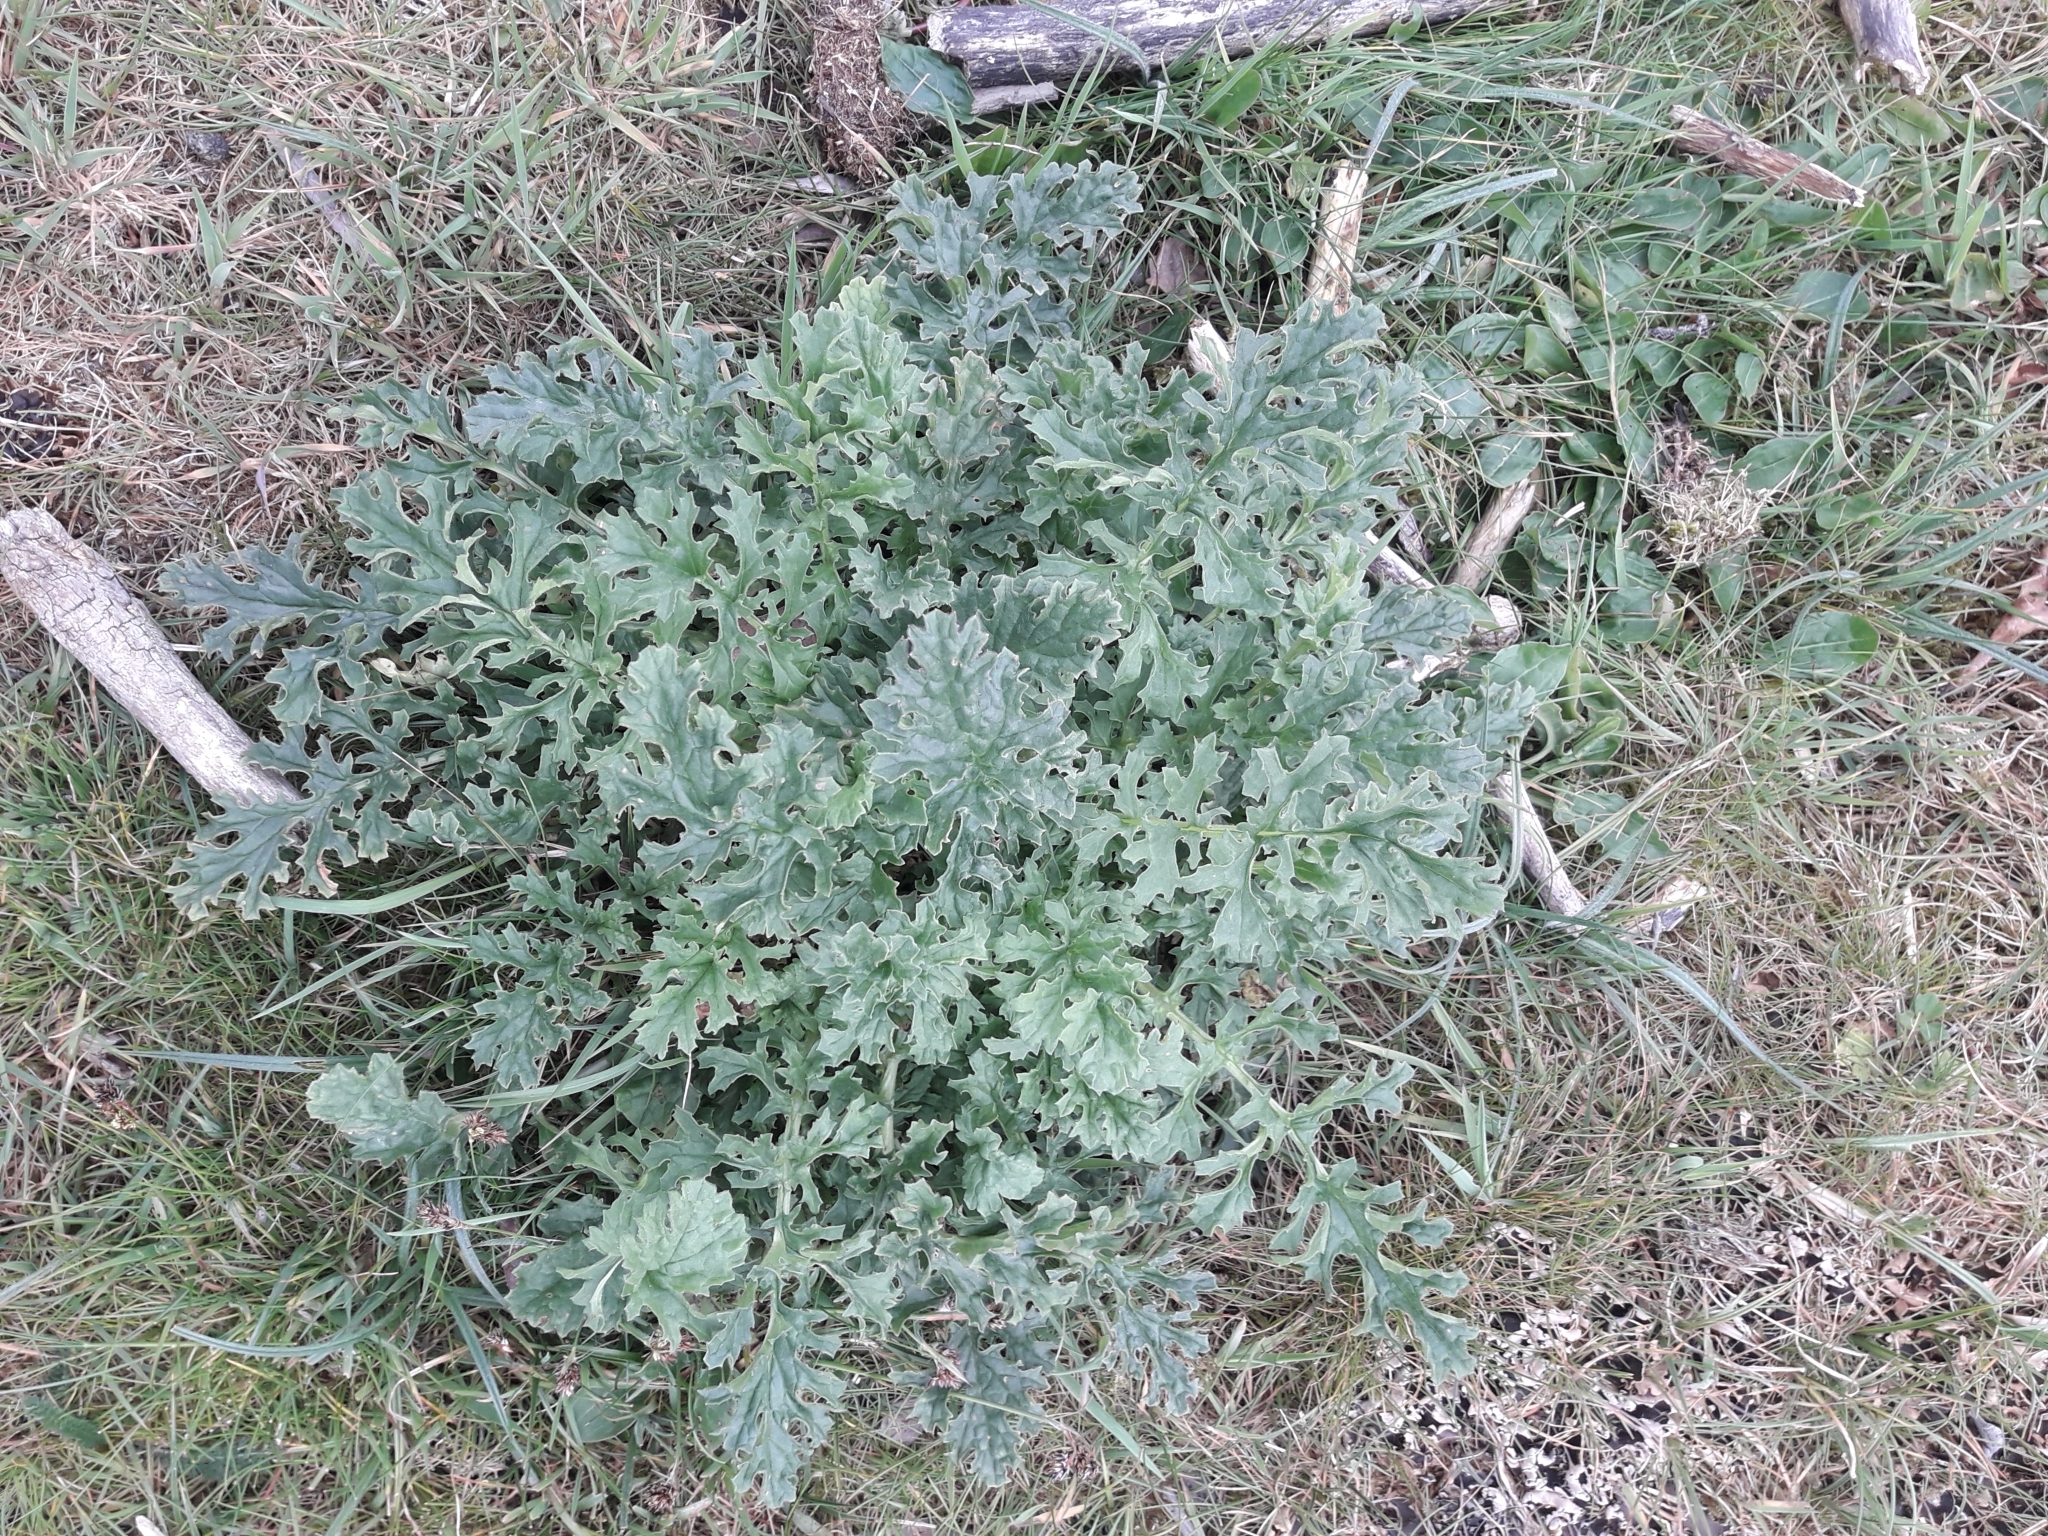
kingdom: Plantae
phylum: Tracheophyta
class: Magnoliopsida
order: Asterales
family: Asteraceae
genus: Jacobaea
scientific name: Jacobaea vulgaris
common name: Stinking willie
